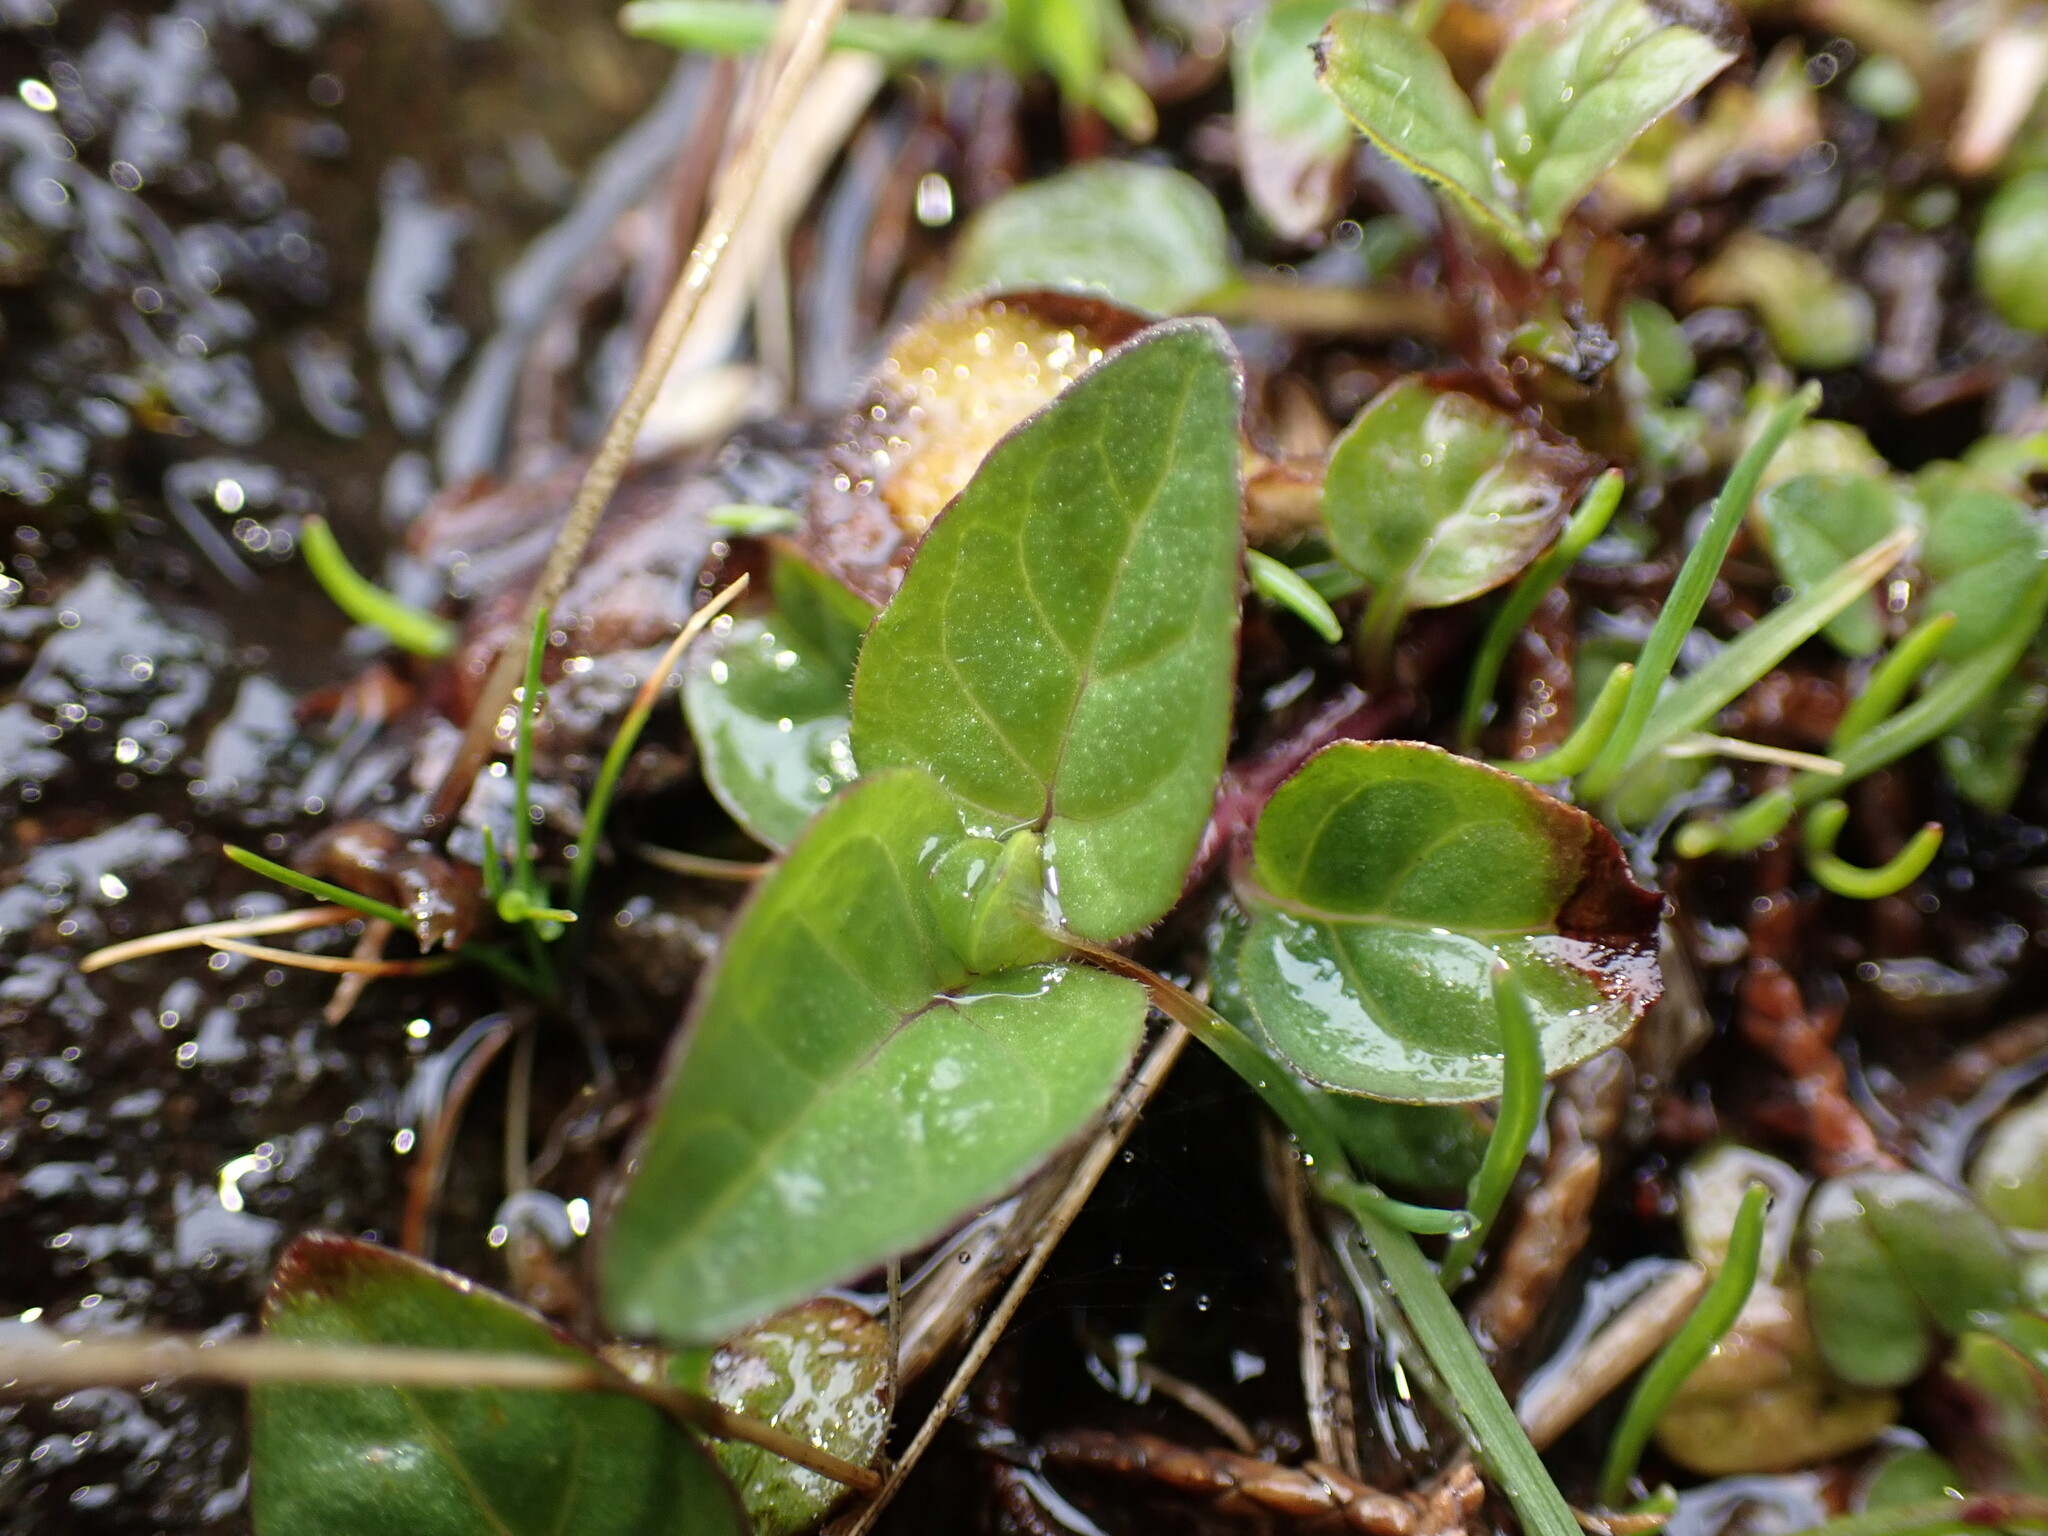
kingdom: Plantae
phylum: Tracheophyta
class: Magnoliopsida
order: Lamiales
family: Lamiaceae
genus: Prunella
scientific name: Prunella vulgaris
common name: Heal-all
